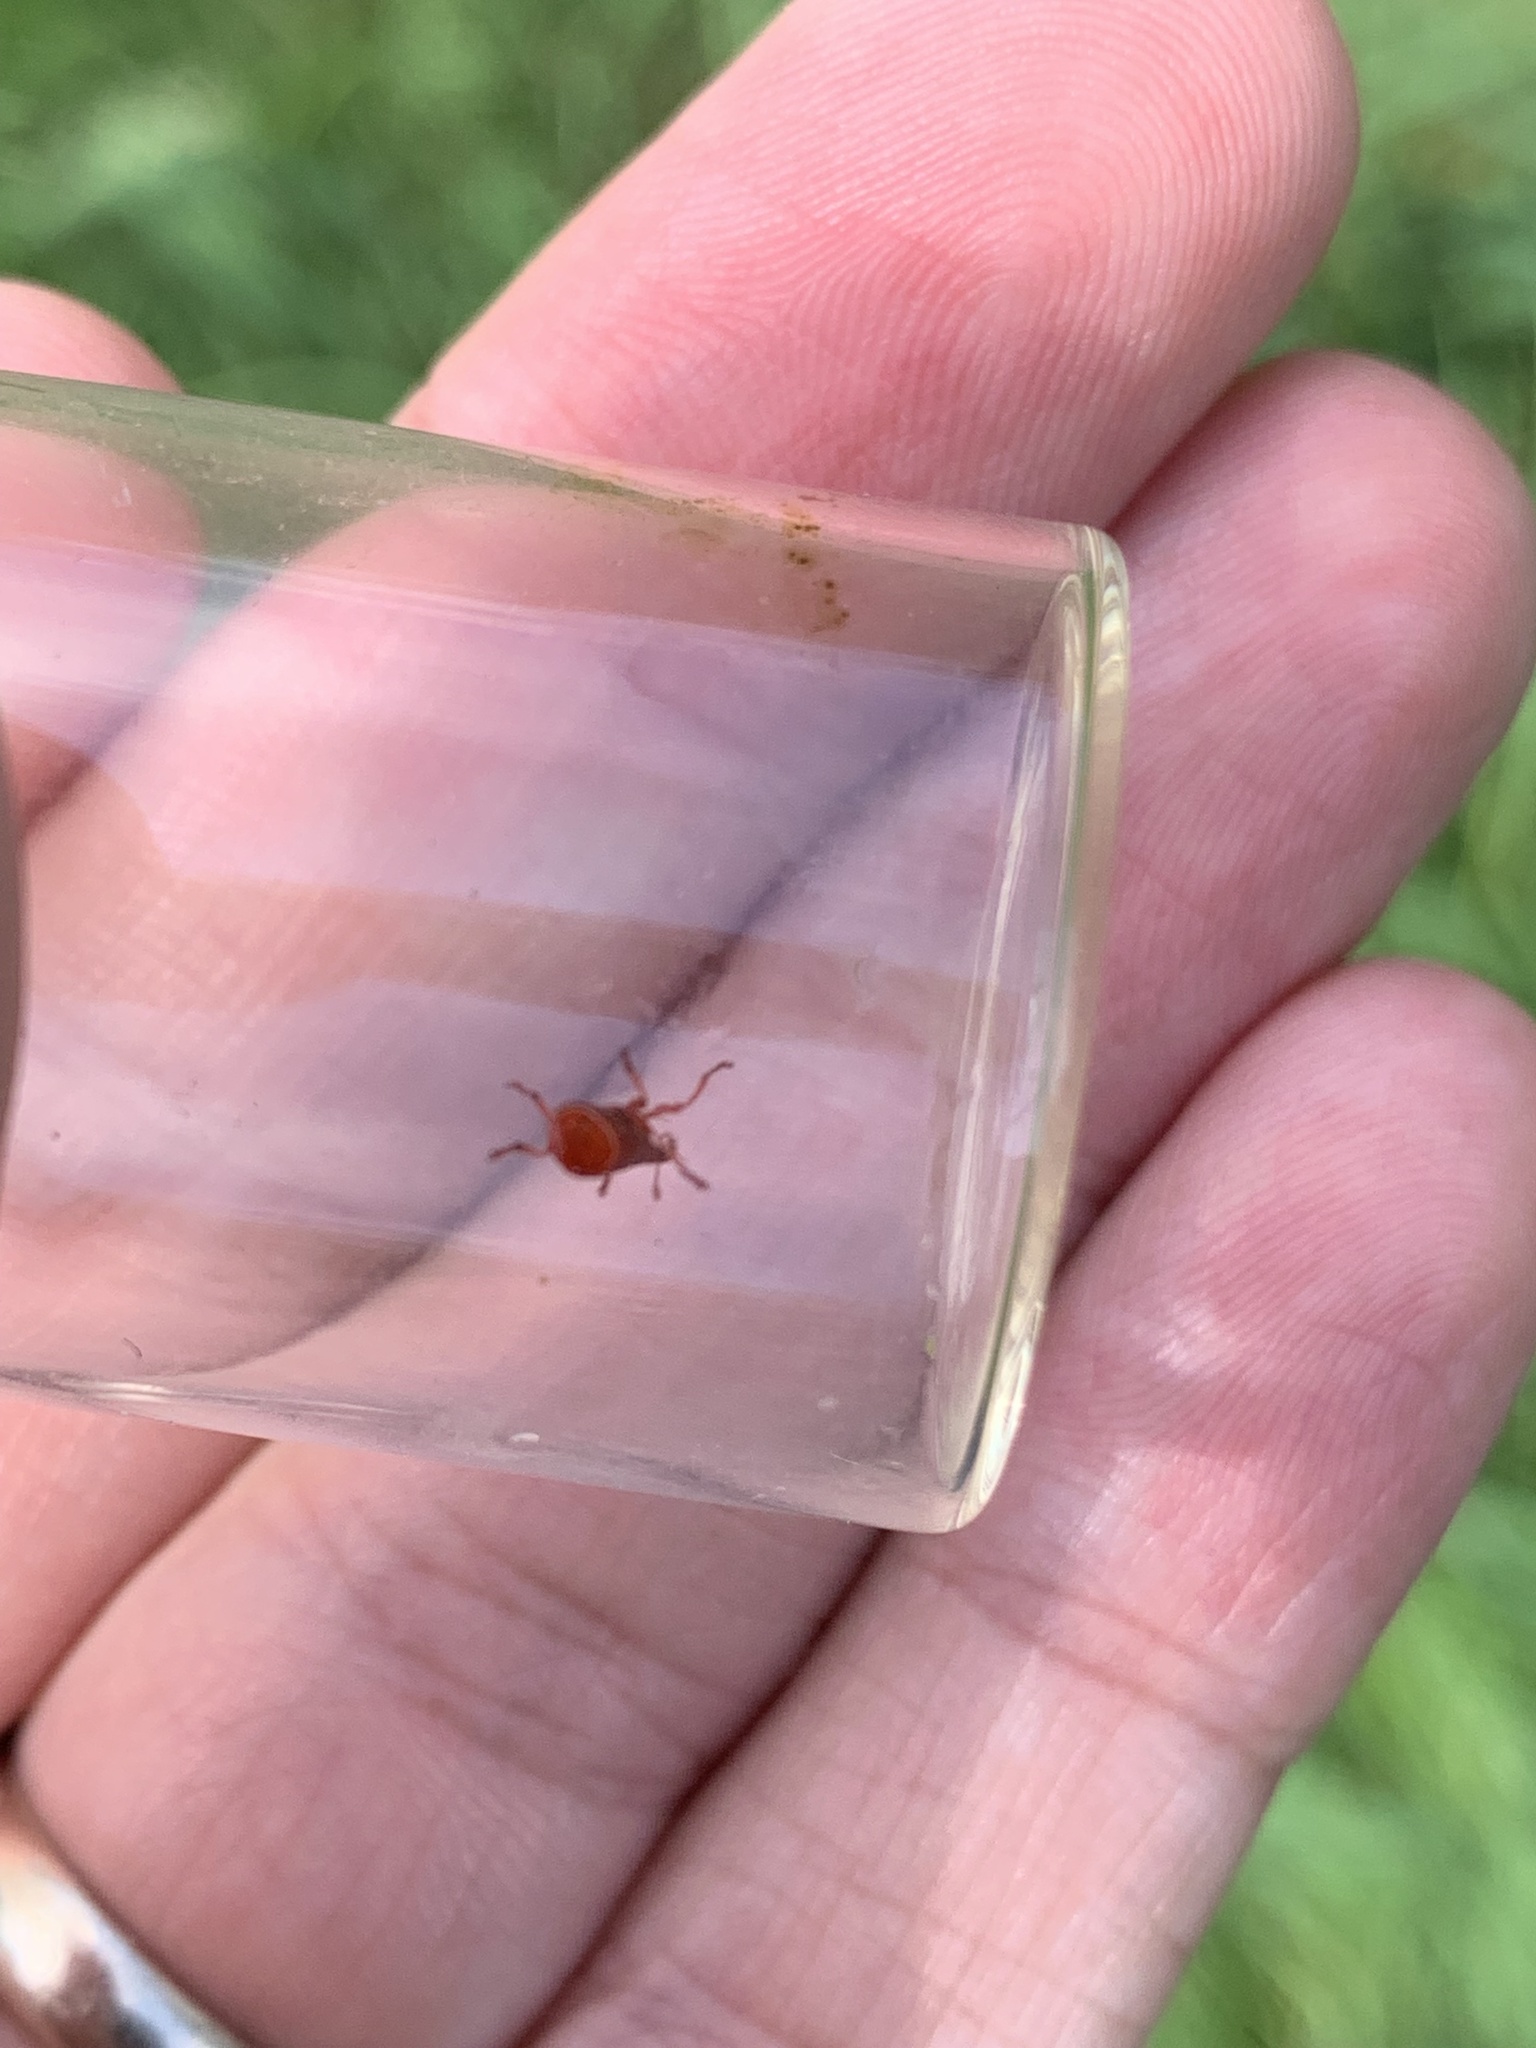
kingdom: Animalia
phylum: Arthropoda
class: Insecta
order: Coleoptera
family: Apionidae
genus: Apion
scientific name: Apion frumentarium
